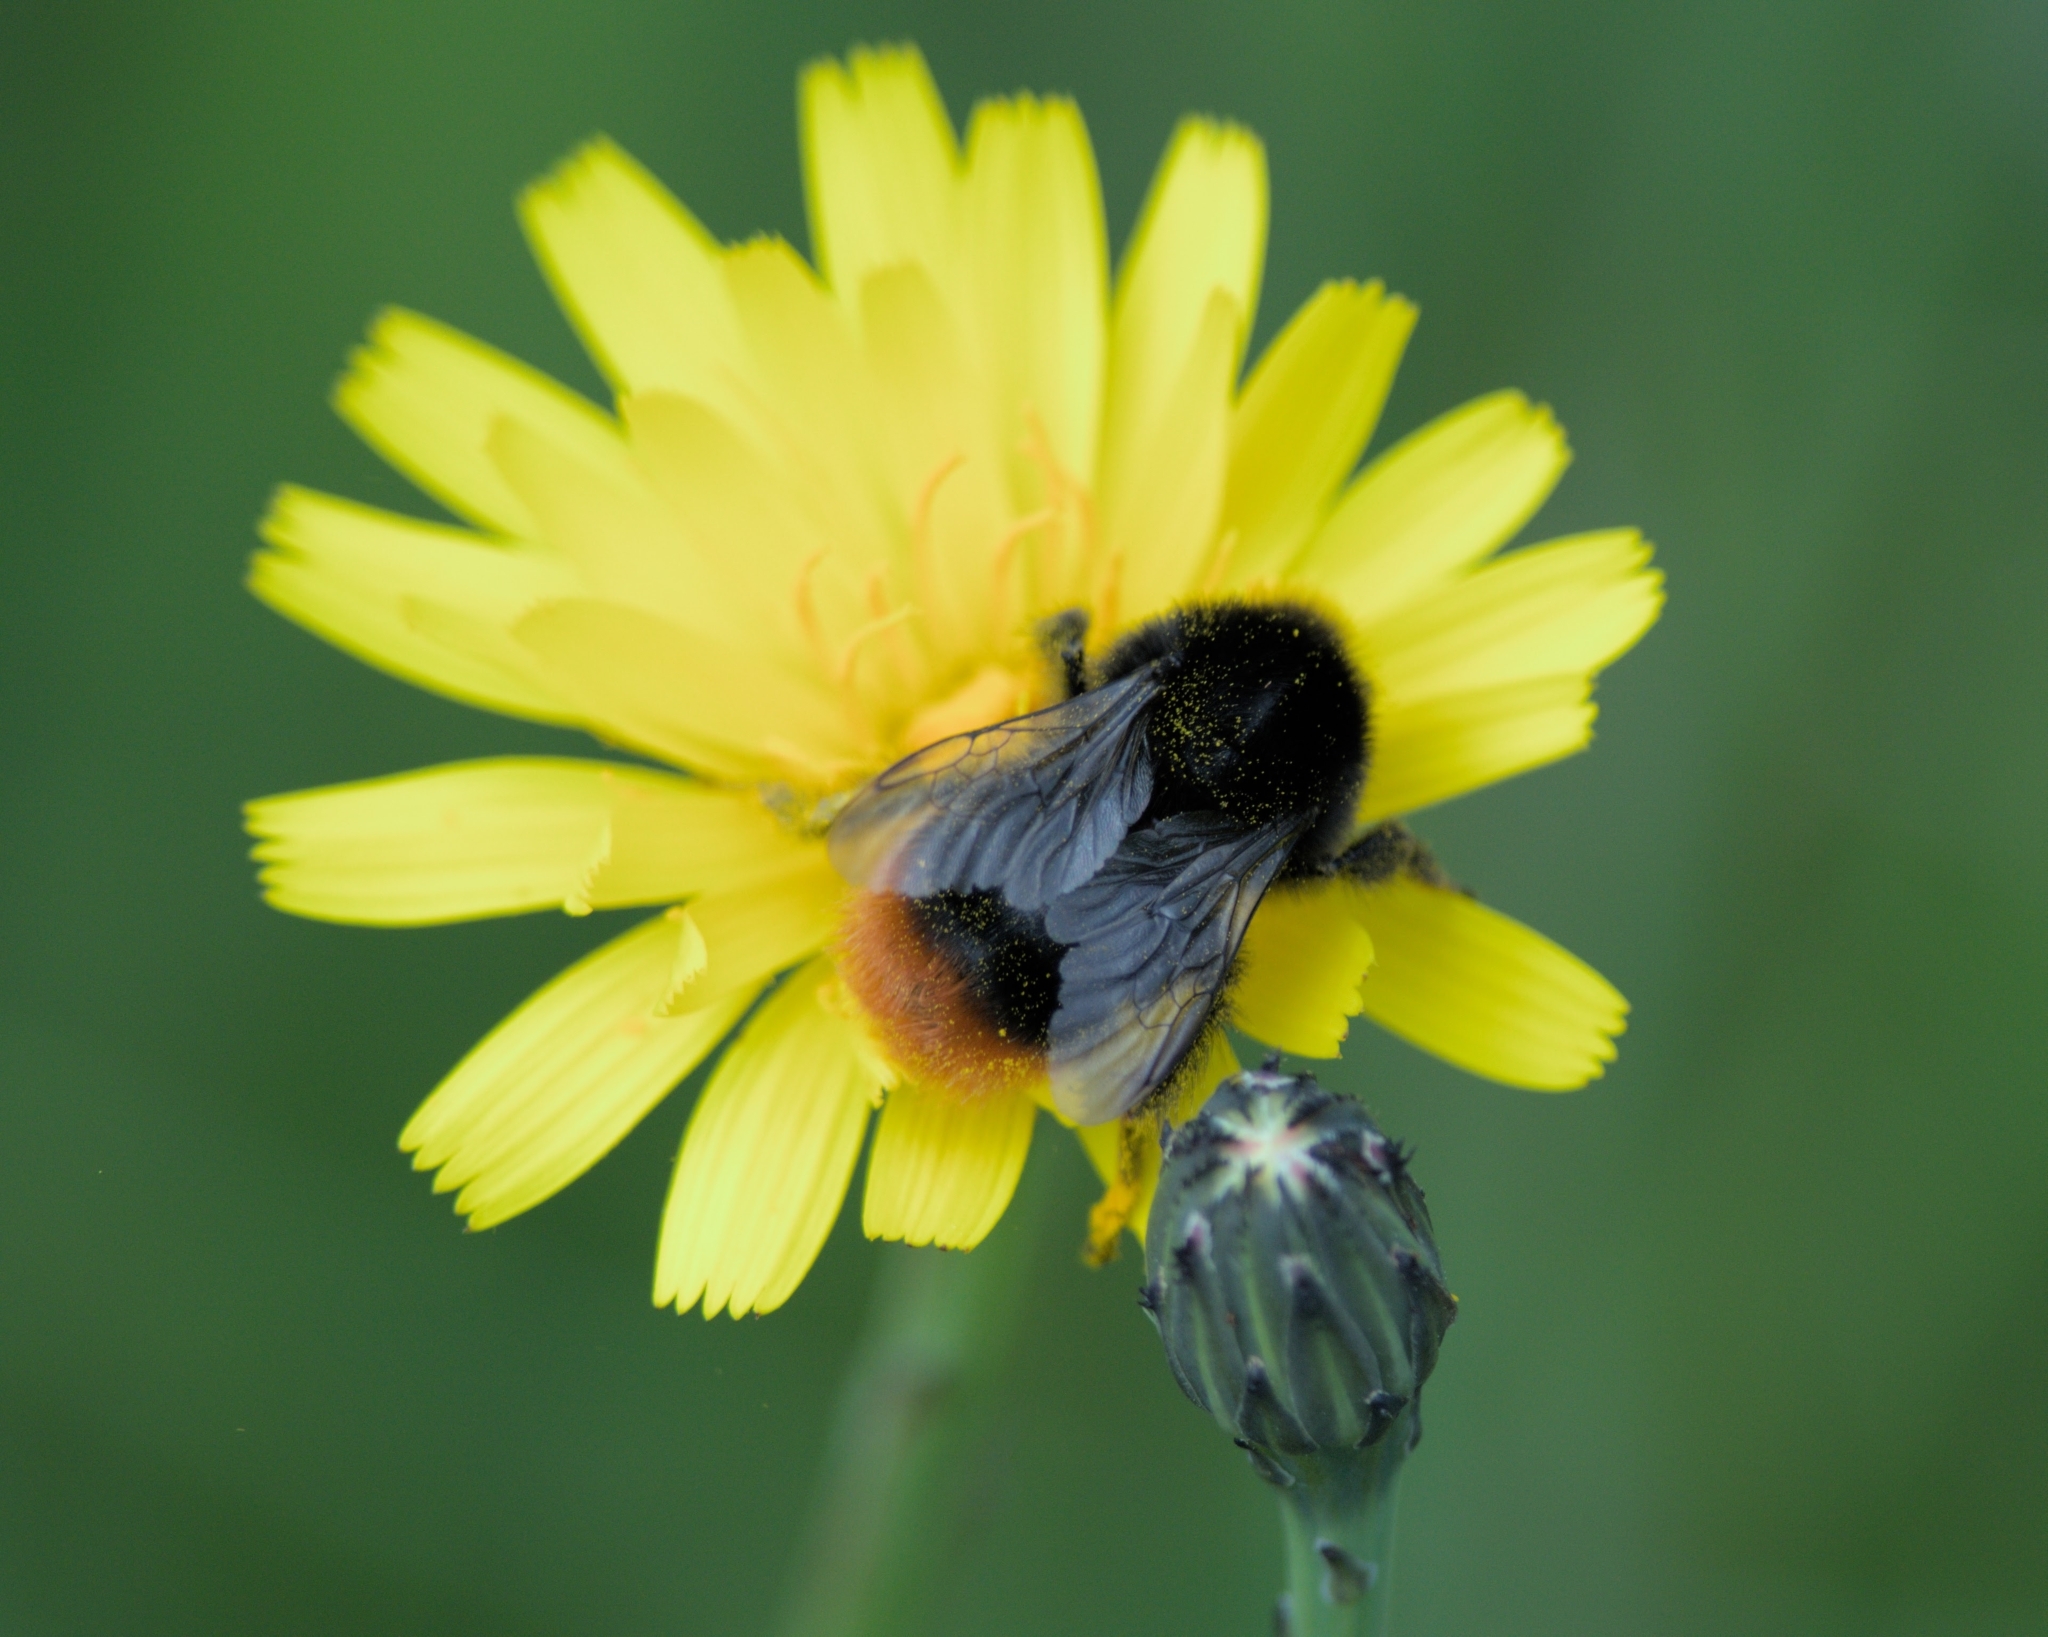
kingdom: Animalia
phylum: Arthropoda
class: Insecta
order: Hymenoptera
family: Apidae
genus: Bombus
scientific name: Bombus lapidarius
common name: Large red-tailed humble-bee
